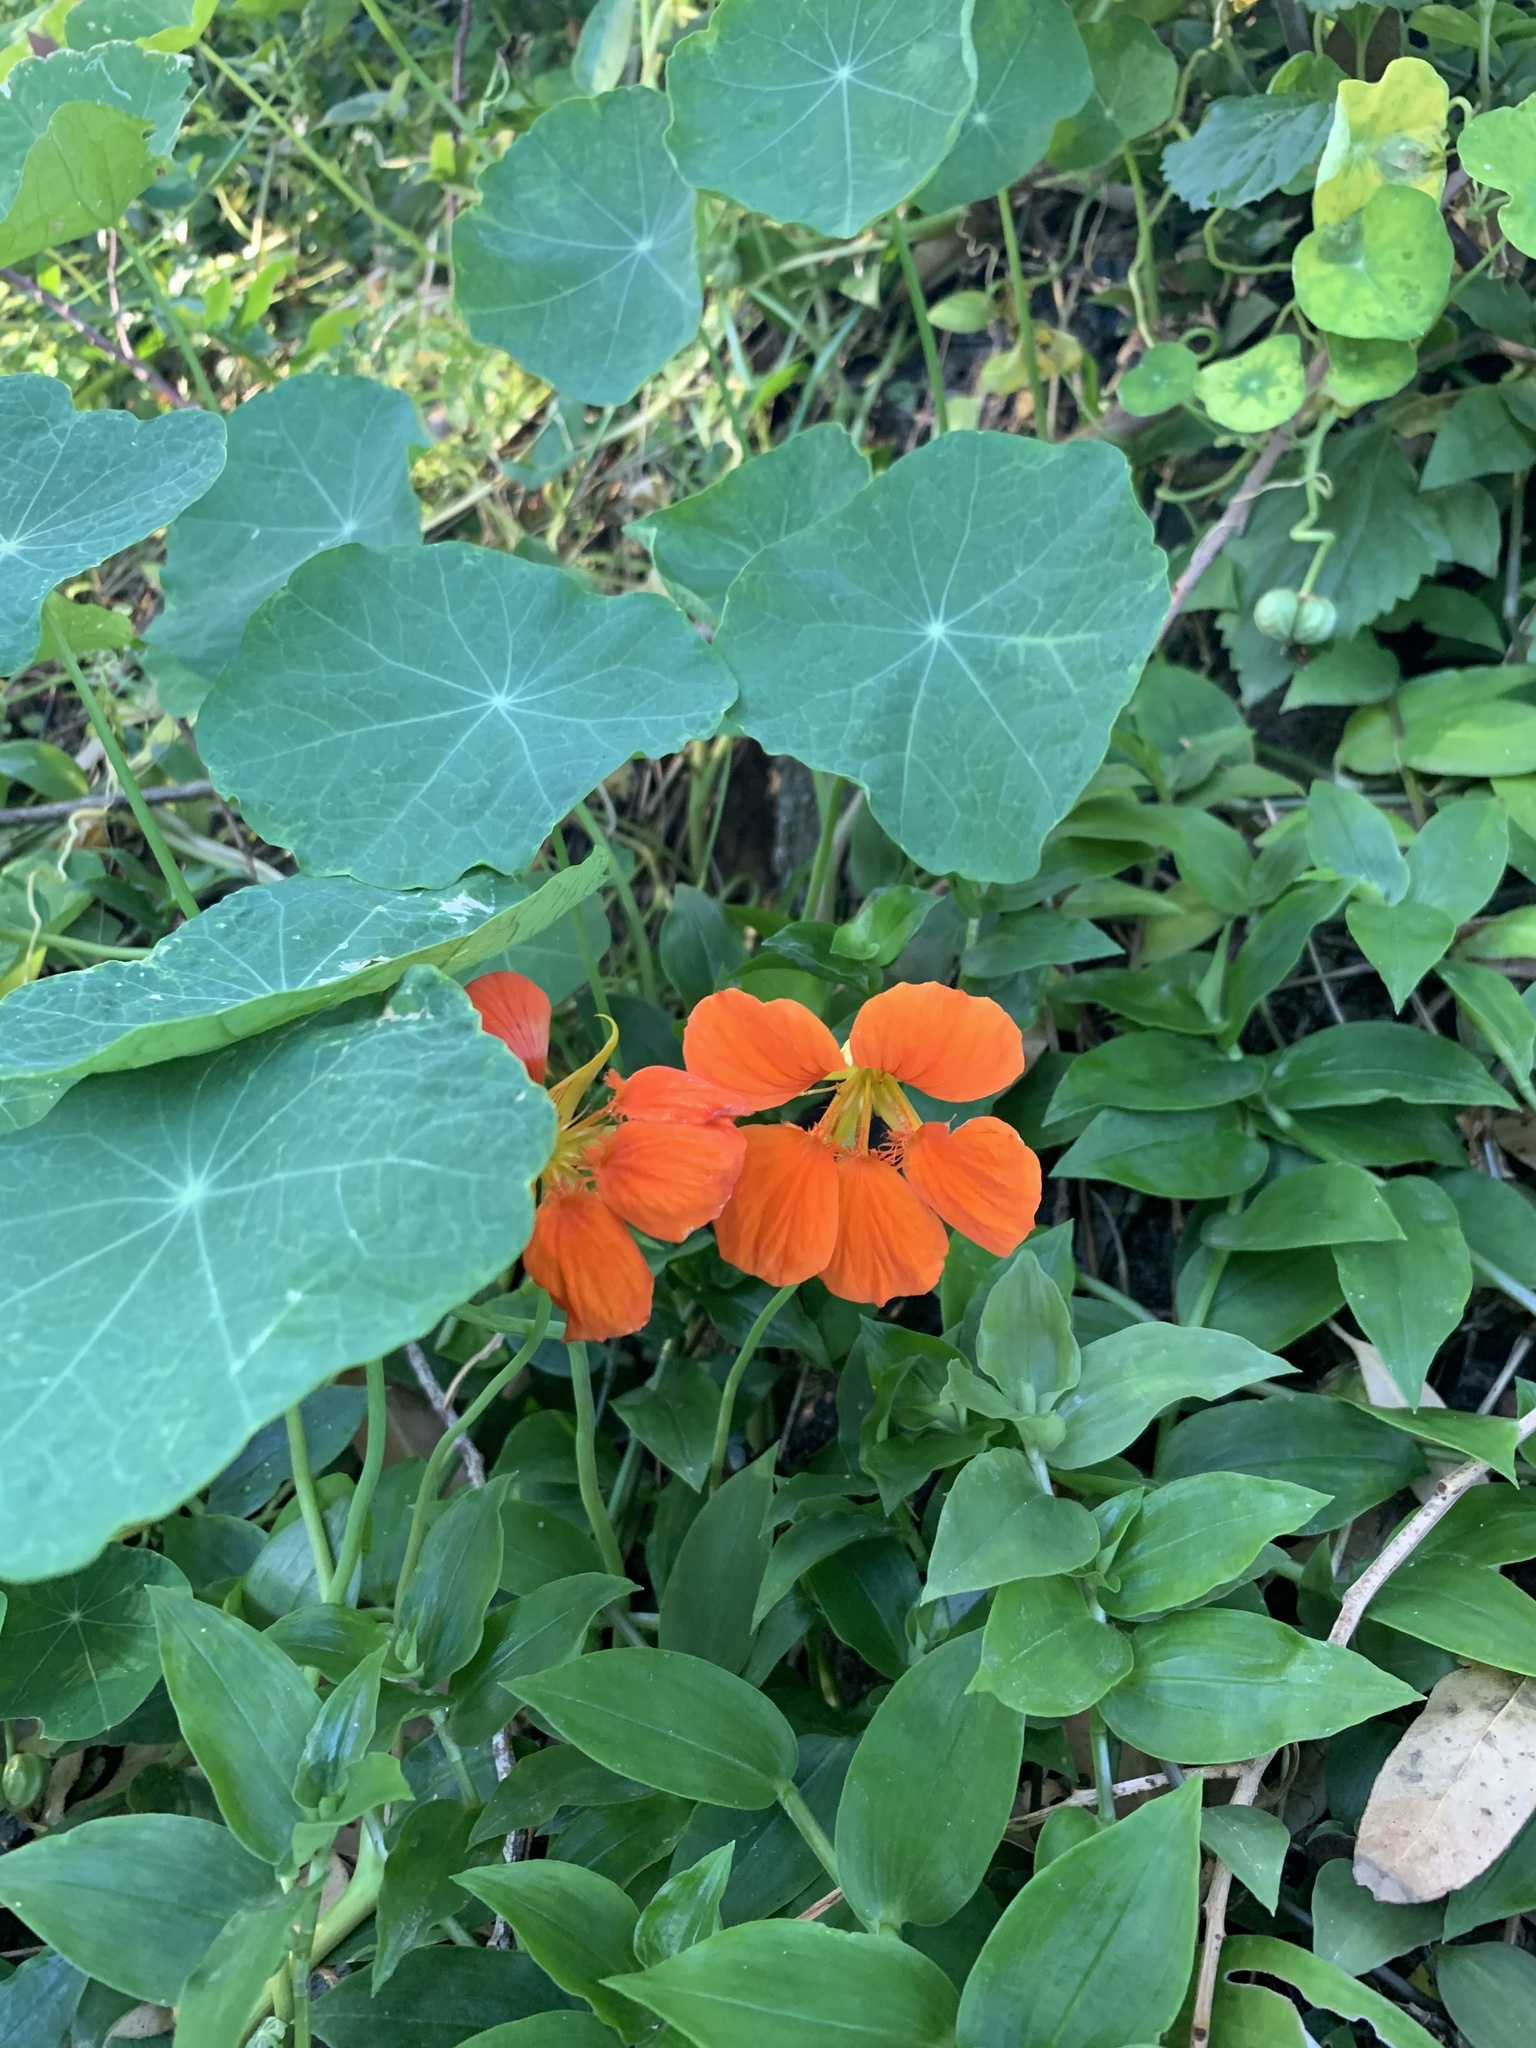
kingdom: Plantae
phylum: Tracheophyta
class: Magnoliopsida
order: Brassicales
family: Tropaeolaceae
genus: Tropaeolum
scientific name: Tropaeolum majus
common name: Nasturtium
